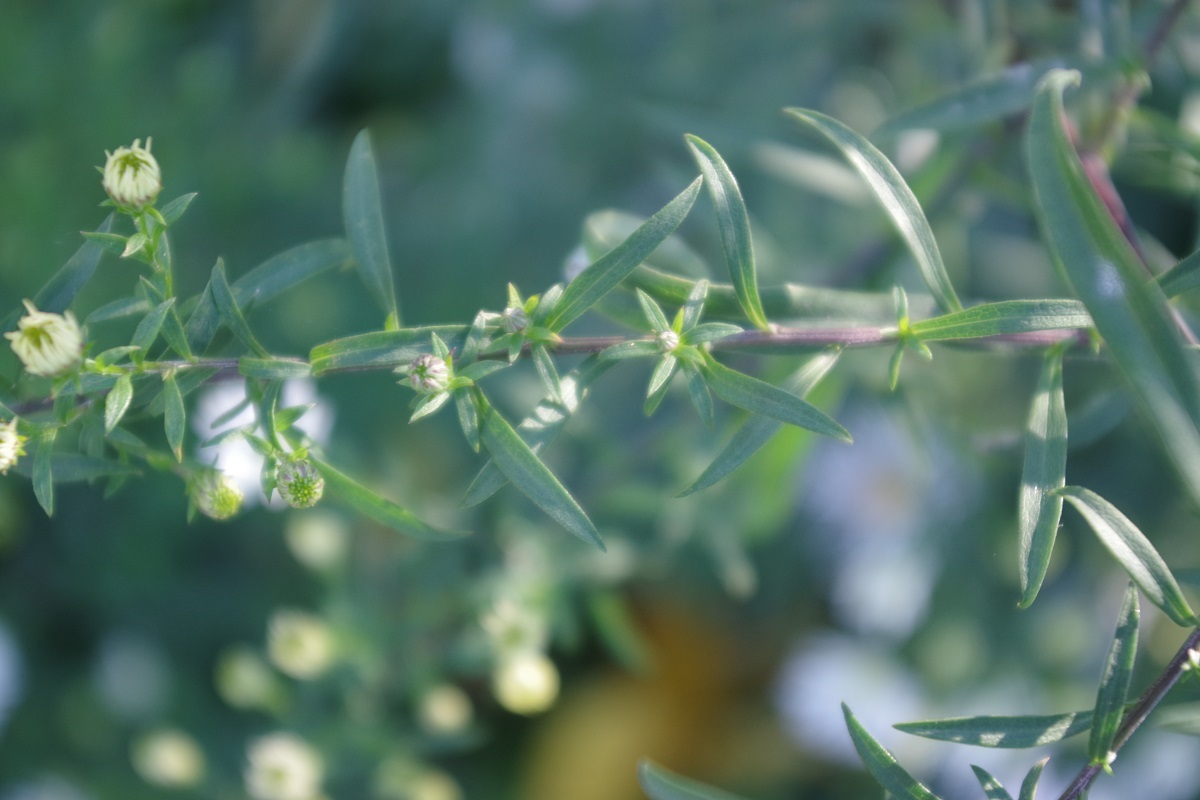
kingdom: Plantae
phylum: Tracheophyta
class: Magnoliopsida
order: Asterales
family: Asteraceae
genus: Symphyotrichum
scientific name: Symphyotrichum lanceolatum
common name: Panicled aster
